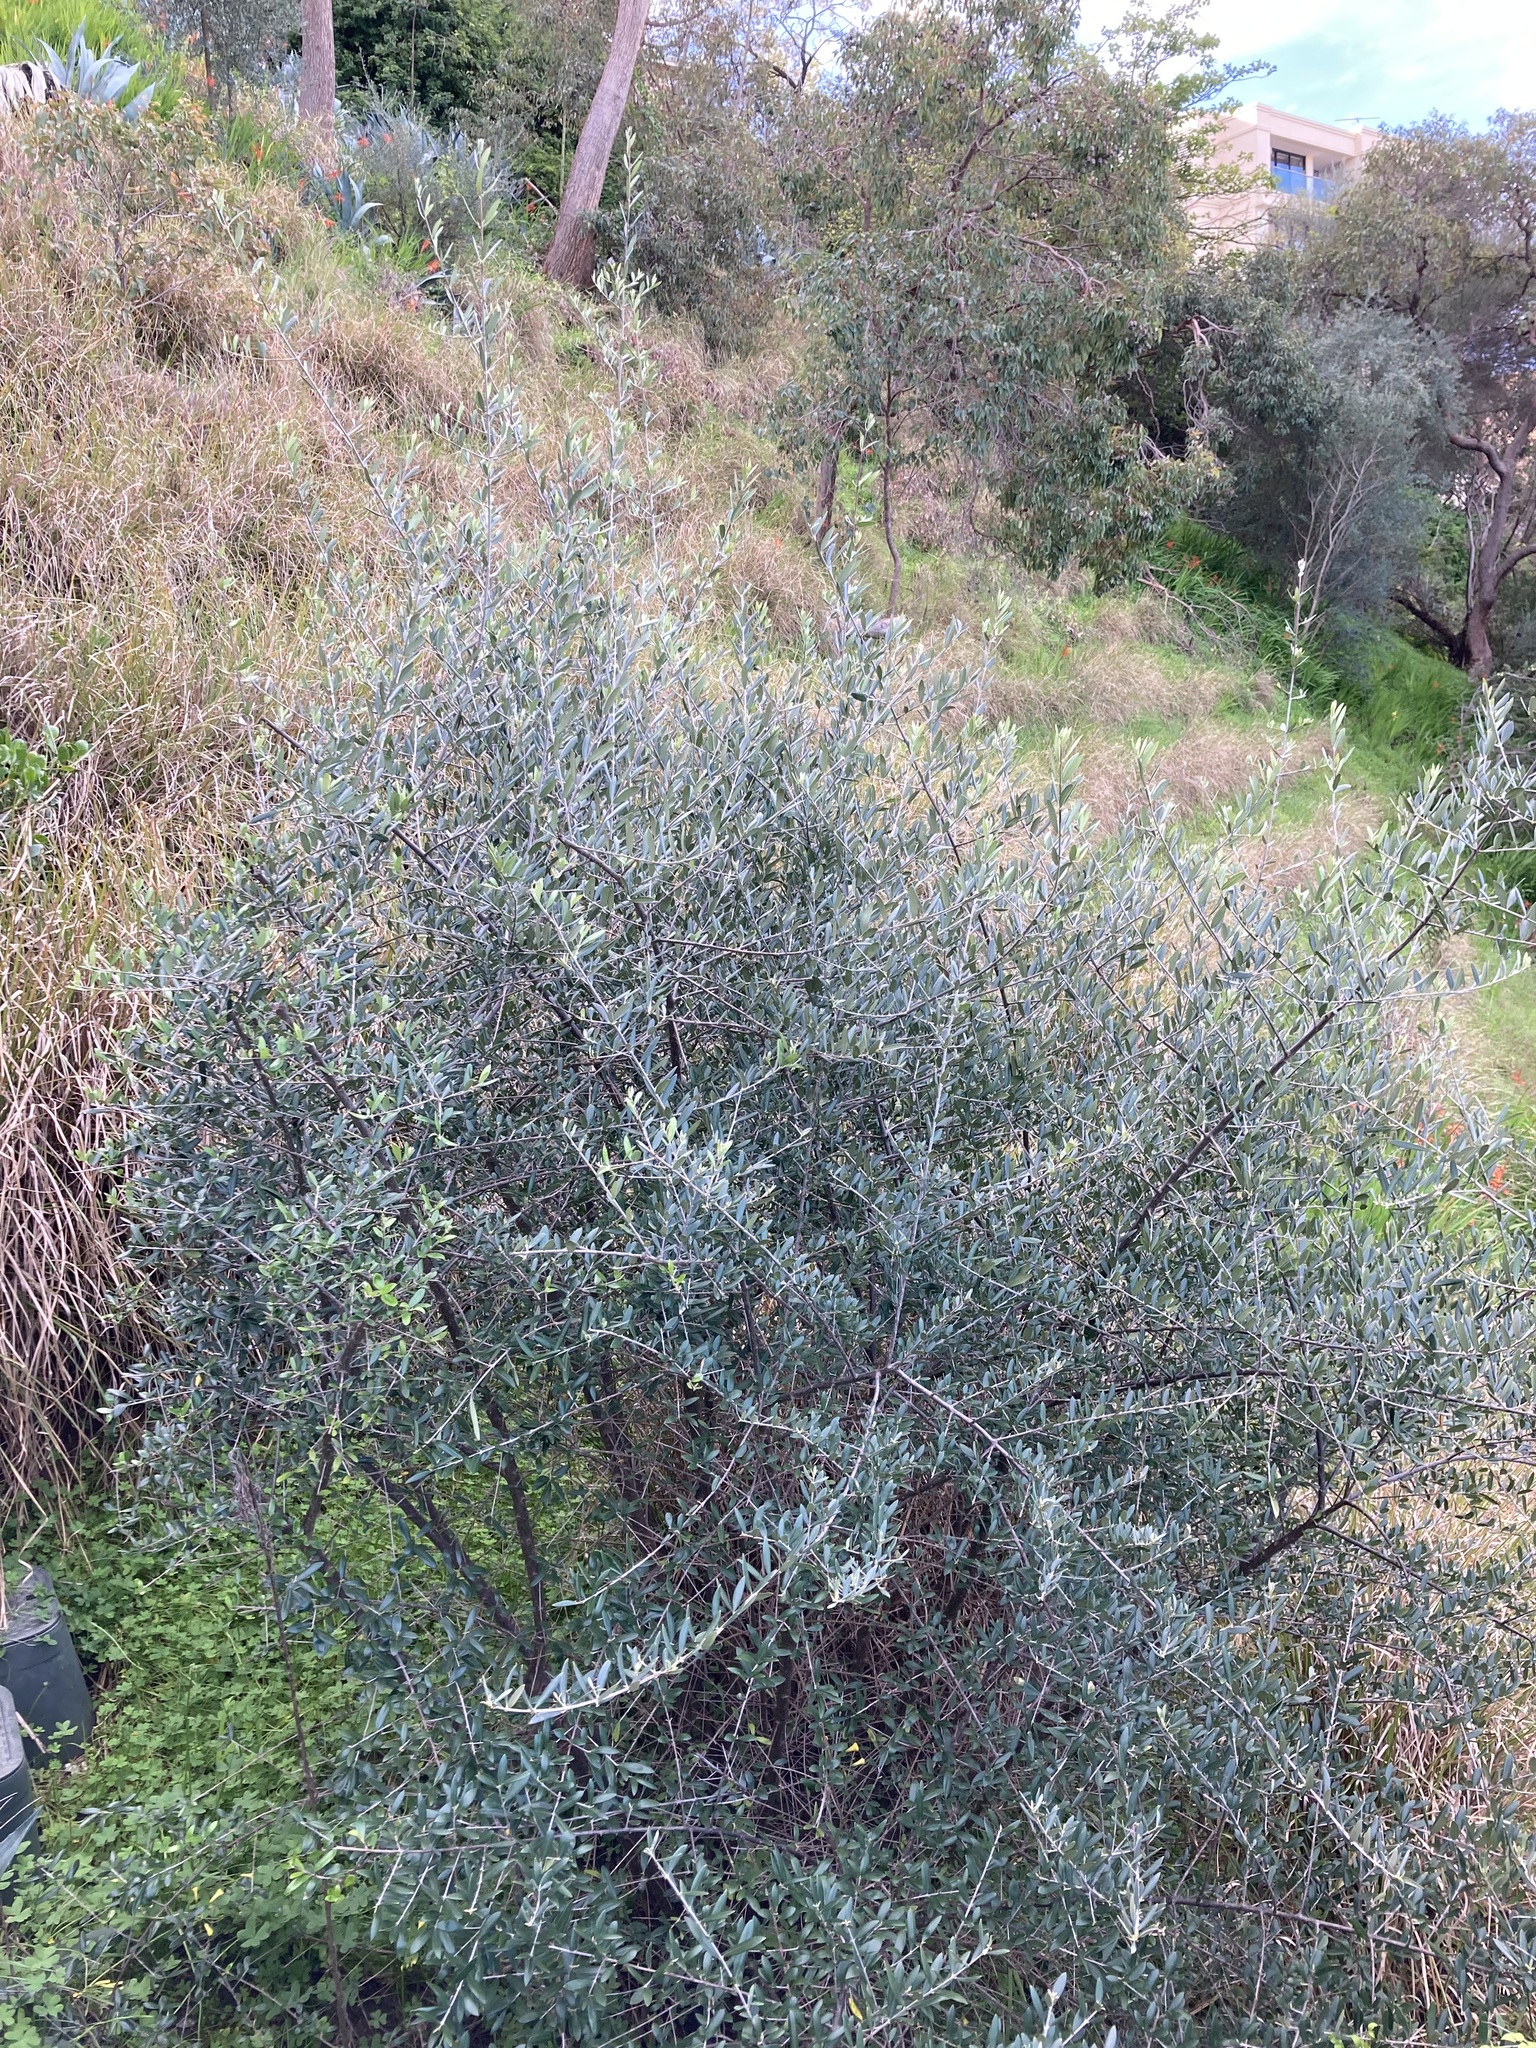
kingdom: Plantae
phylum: Tracheophyta
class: Magnoliopsida
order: Lamiales
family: Oleaceae
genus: Olea
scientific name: Olea europaea
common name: Olive
